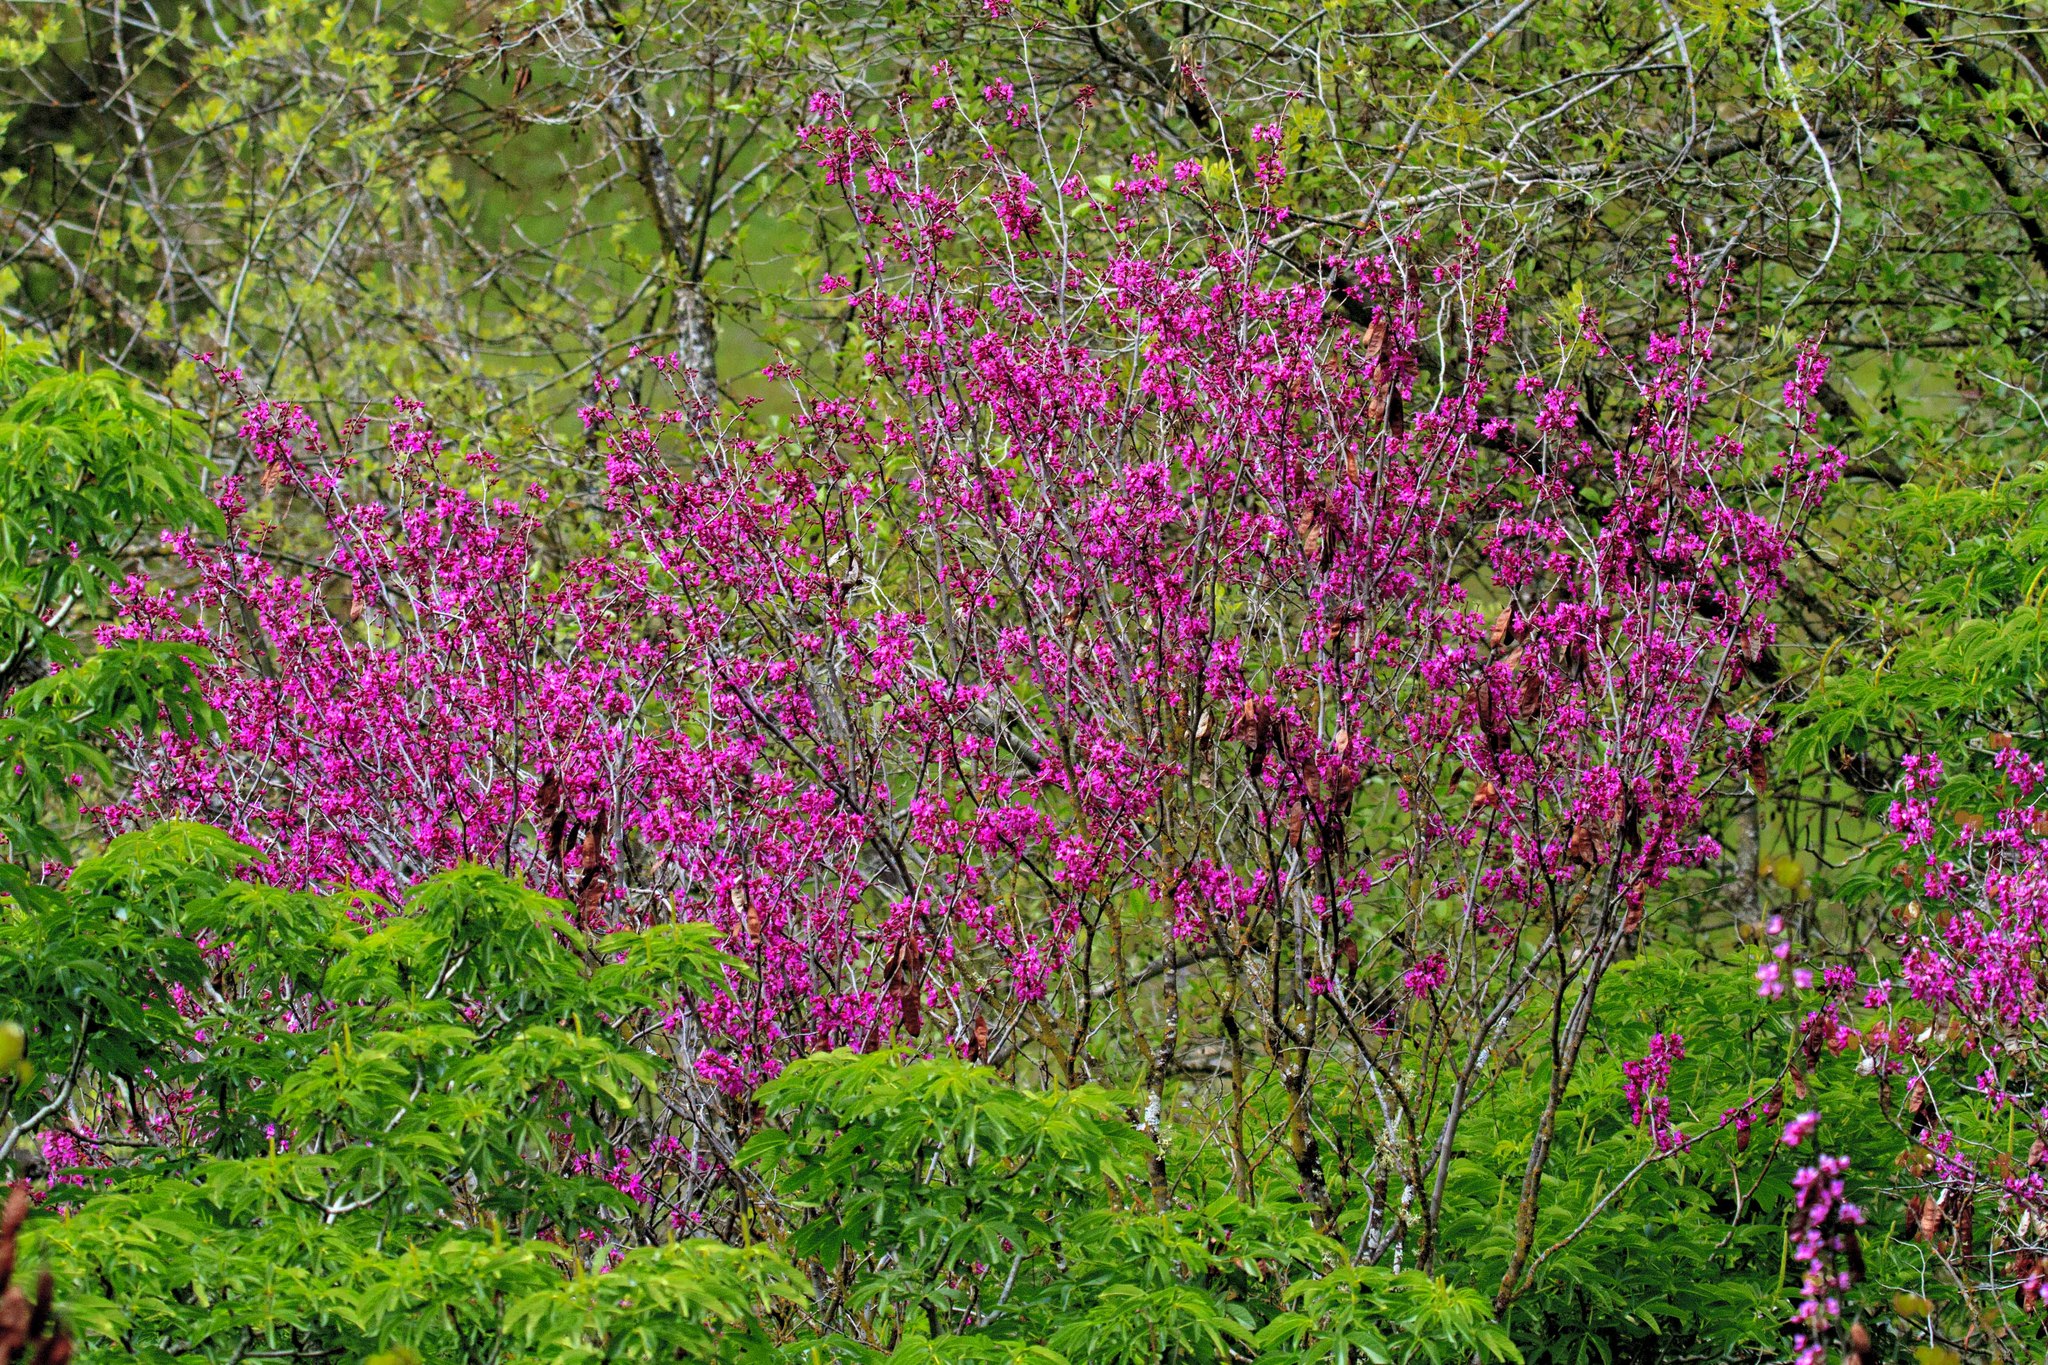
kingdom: Plantae
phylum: Tracheophyta
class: Magnoliopsida
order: Fabales
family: Fabaceae
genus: Cercis
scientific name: Cercis occidentalis
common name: California redbud
